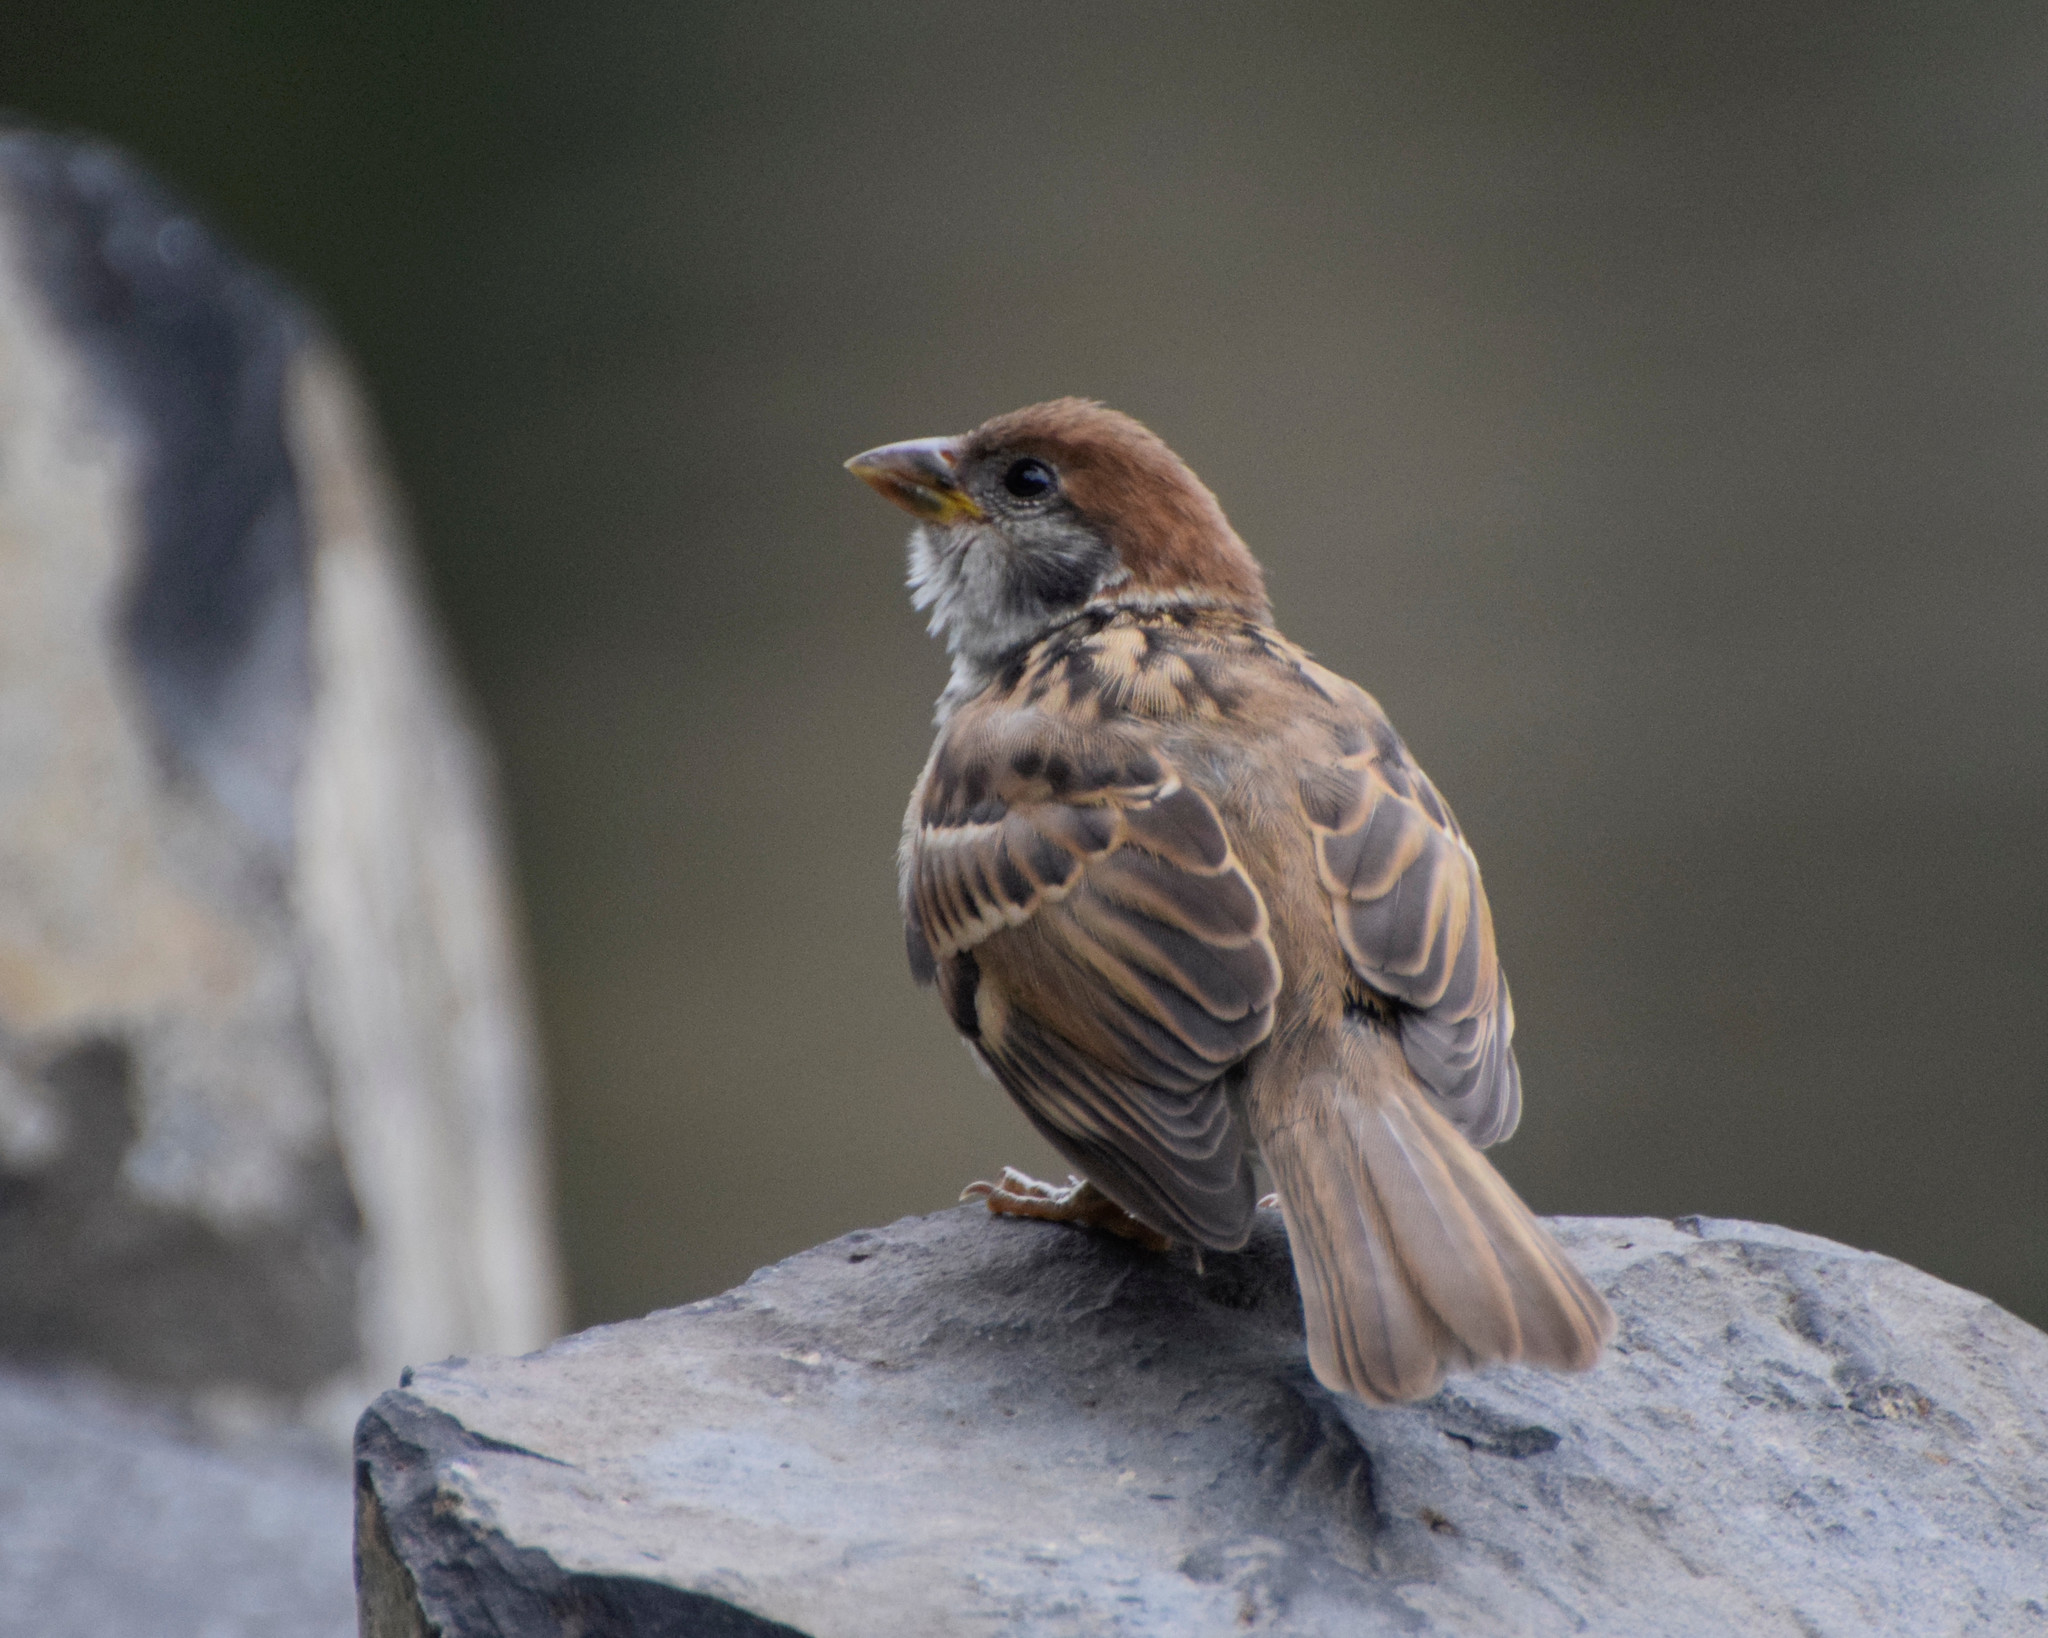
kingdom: Animalia
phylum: Chordata
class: Aves
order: Passeriformes
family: Passeridae
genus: Passer
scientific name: Passer montanus
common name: Eurasian tree sparrow
